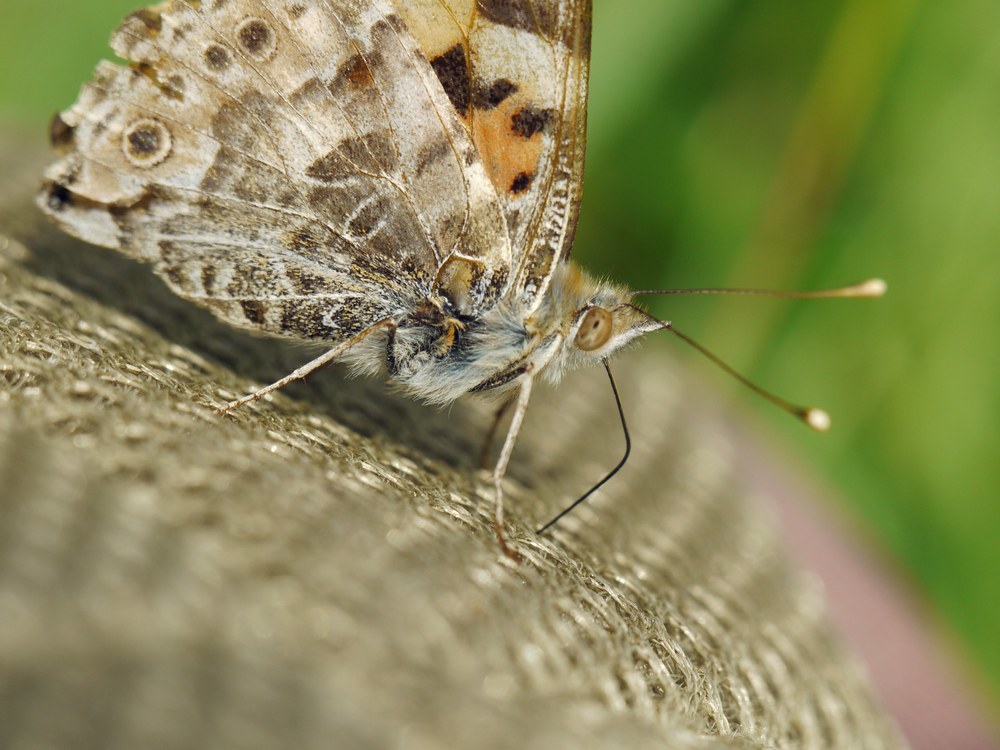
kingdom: Animalia
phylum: Arthropoda
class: Insecta
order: Lepidoptera
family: Nymphalidae
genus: Vanessa
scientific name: Vanessa cardui
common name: Painted lady
